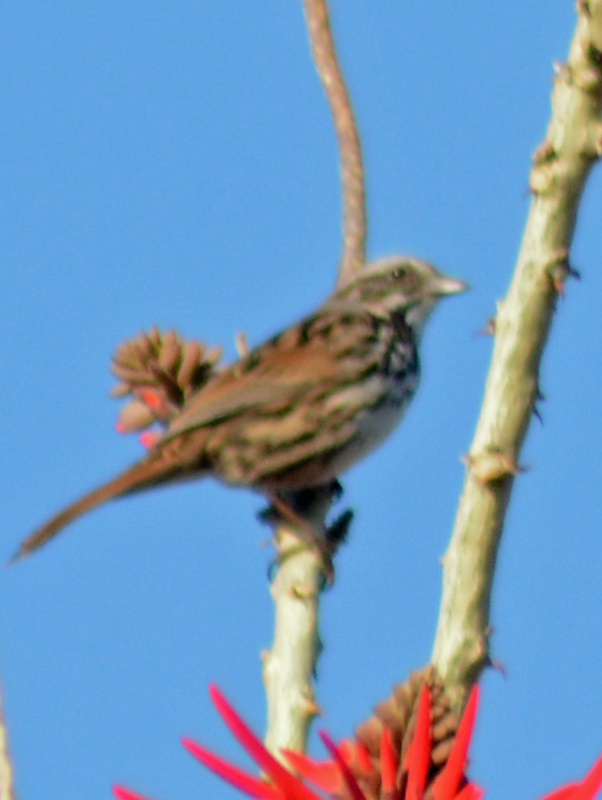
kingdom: Animalia
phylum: Chordata
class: Aves
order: Passeriformes
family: Passerellidae
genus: Melospiza
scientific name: Melospiza melodia
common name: Song sparrow
